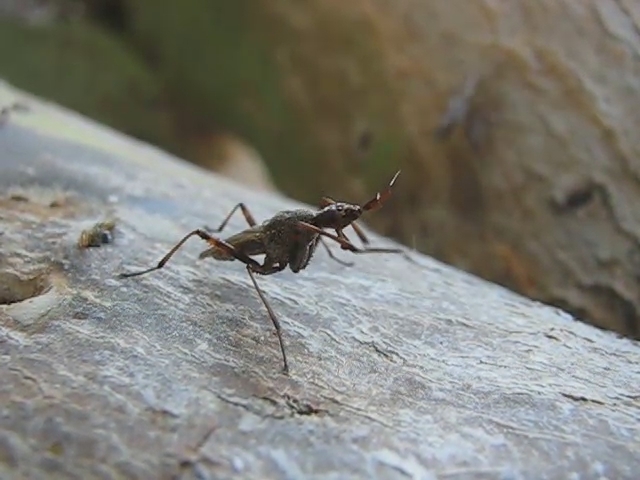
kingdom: Animalia
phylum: Arthropoda
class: Insecta
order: Diptera
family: Neriidae
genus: Odontoloxozus
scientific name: Odontoloxozus longicornis
